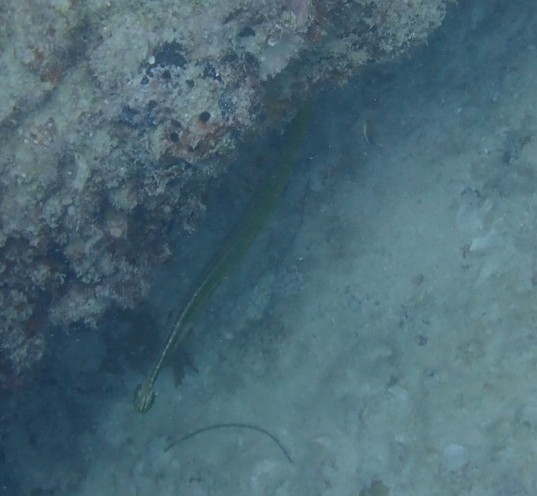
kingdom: Animalia
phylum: Chordata
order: Syngnathiformes
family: Aulostomidae
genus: Aulostomus
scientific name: Aulostomus maculatus
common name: West atlantic trumpetfish
